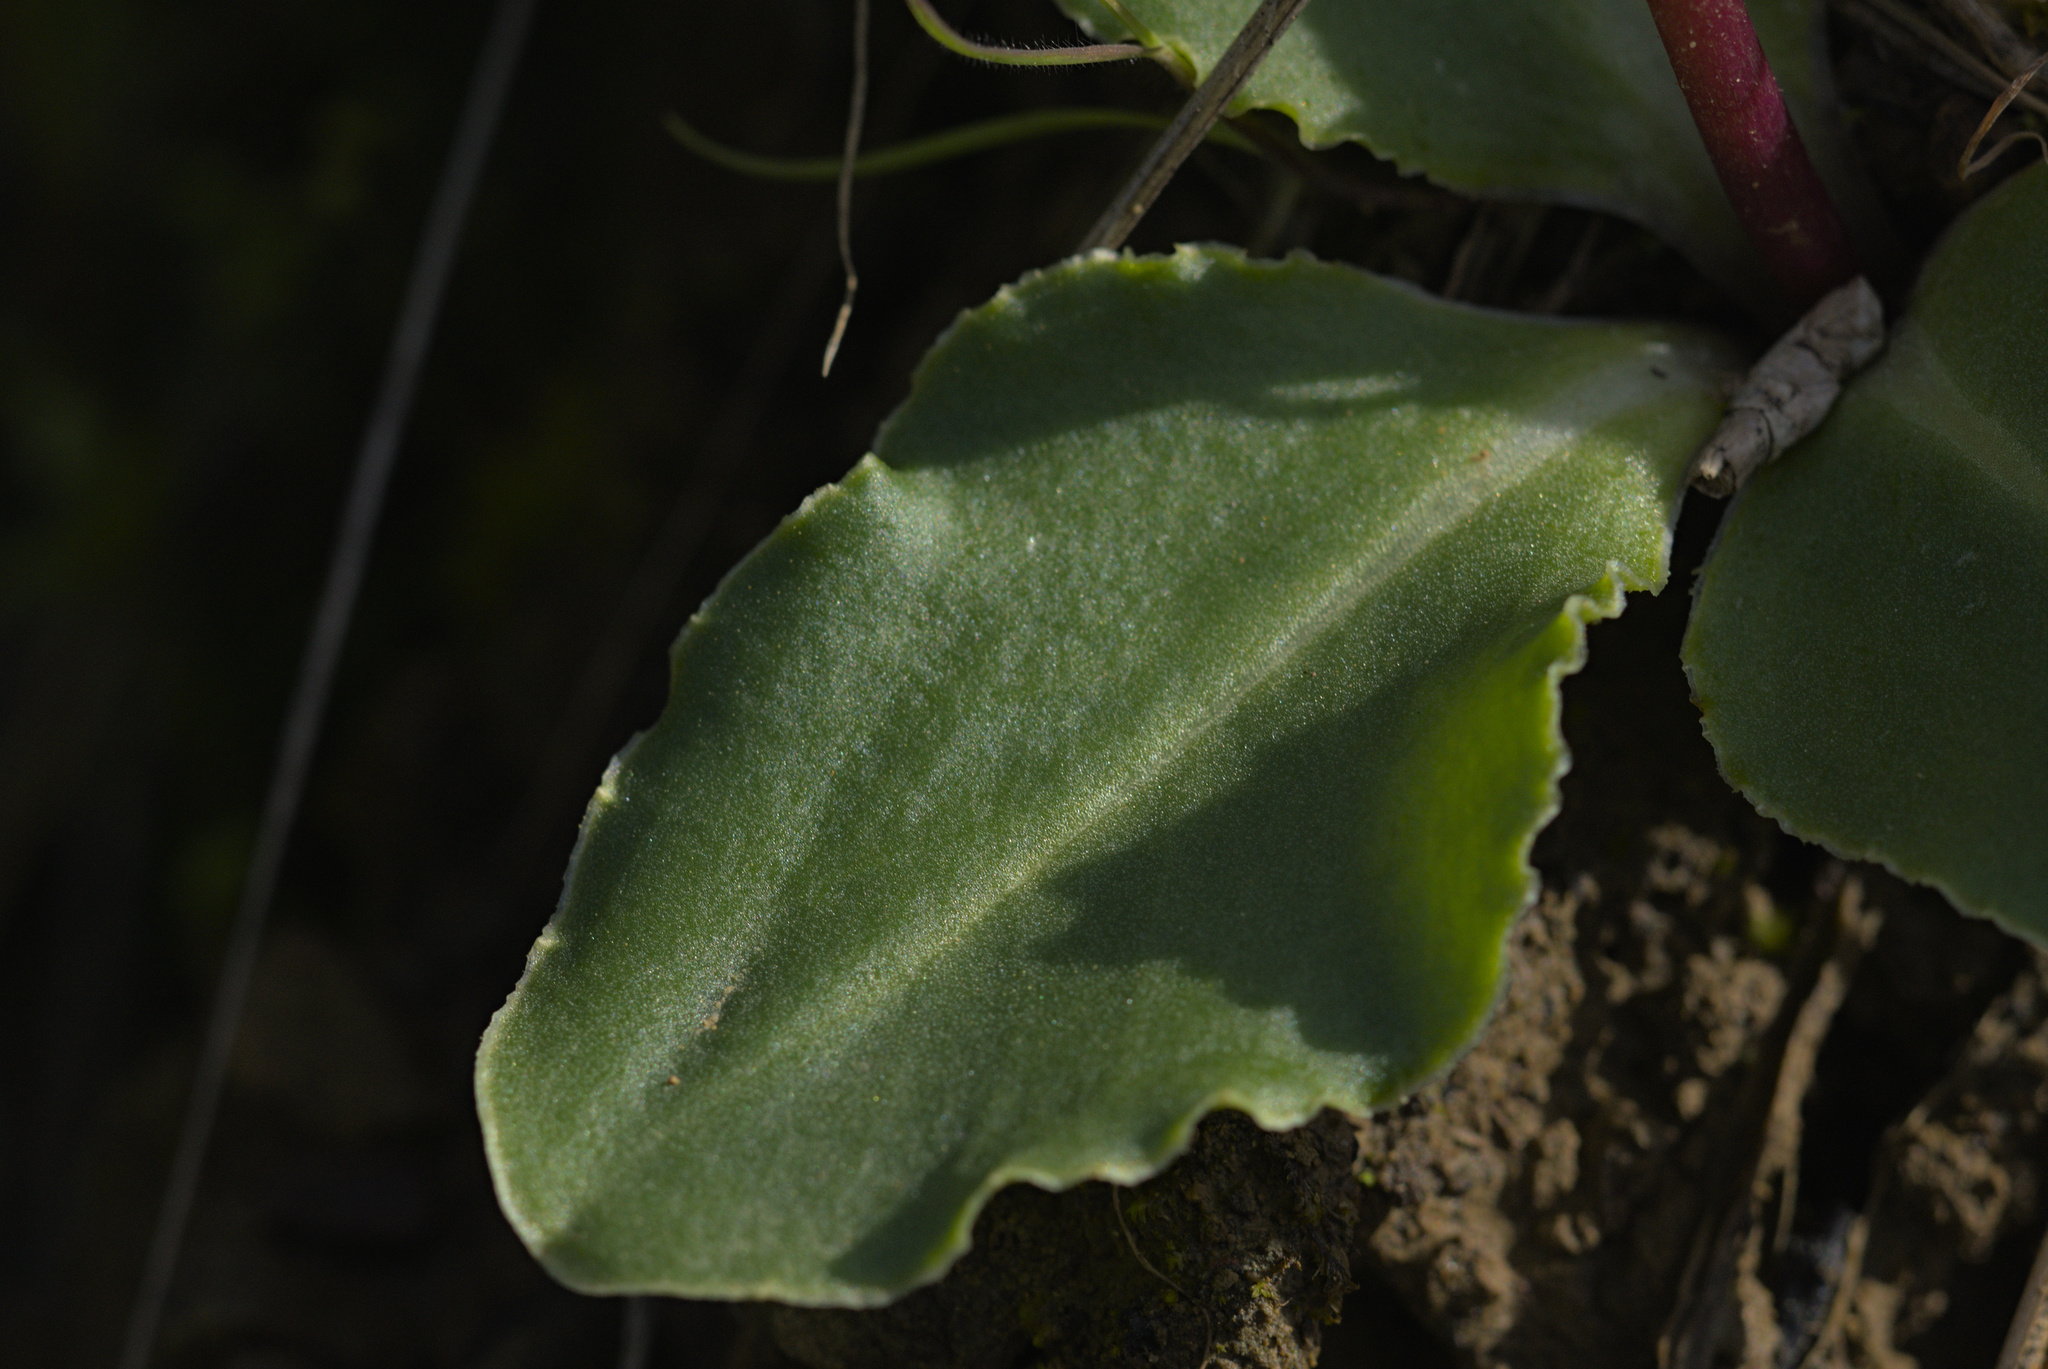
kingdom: Plantae
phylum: Tracheophyta
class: Magnoliopsida
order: Ericales
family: Primulaceae
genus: Dodecatheon
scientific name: Dodecatheon hendersonii
